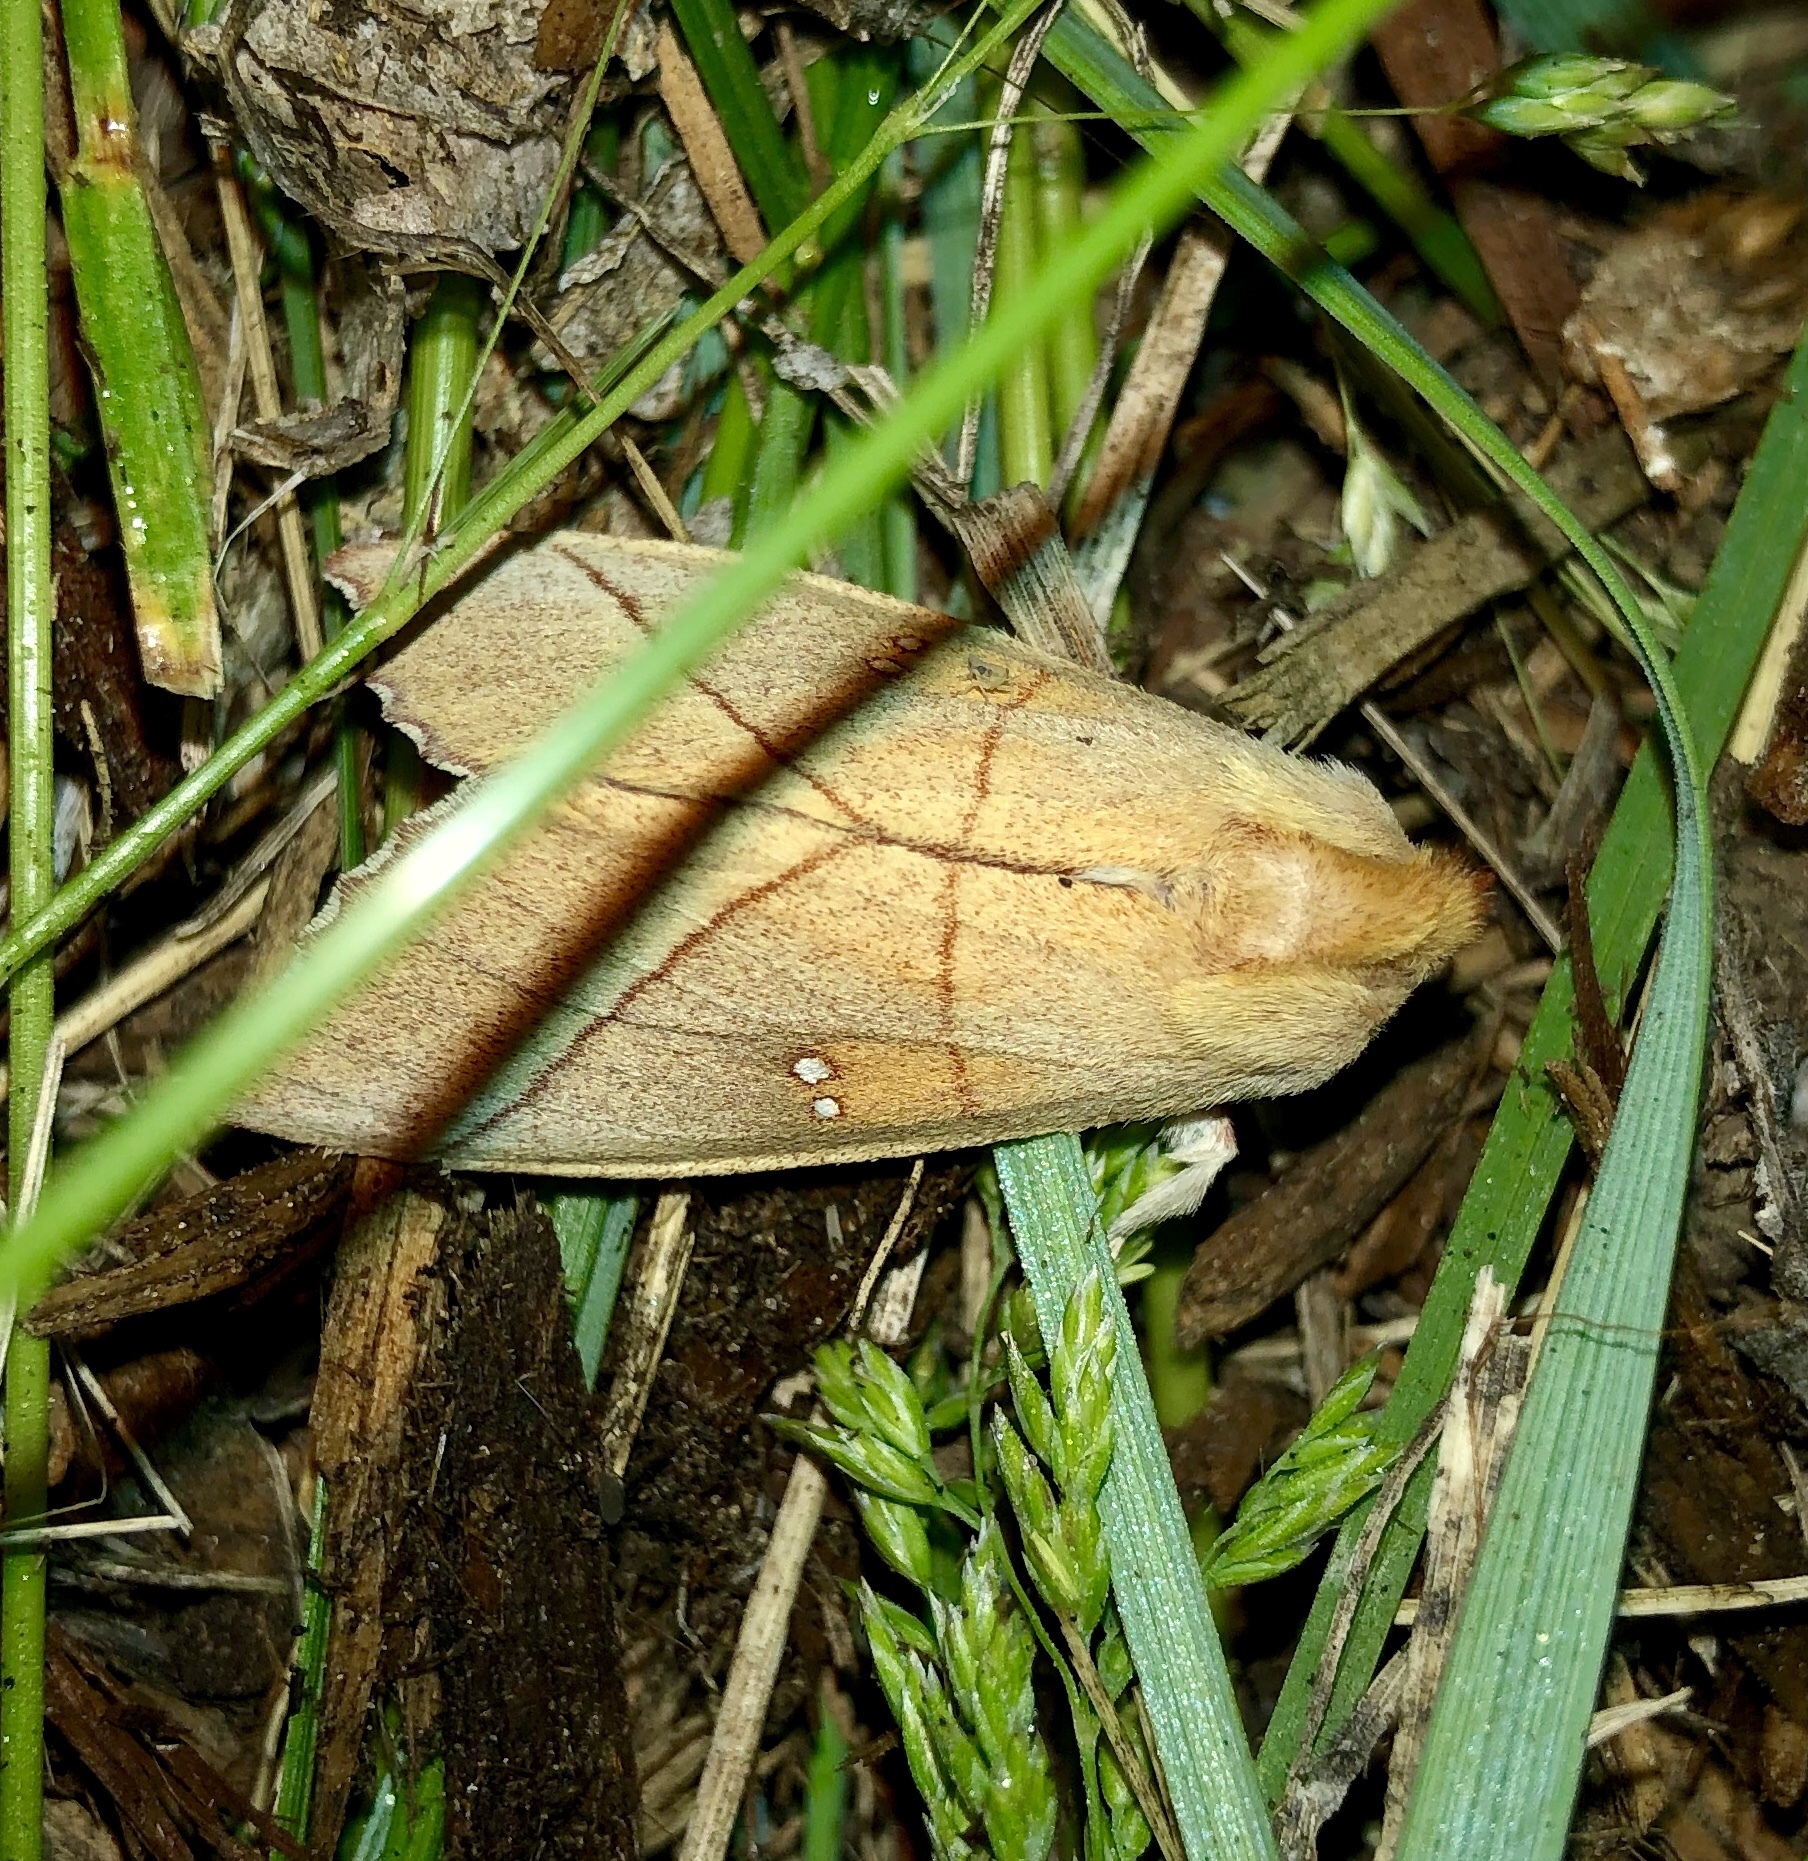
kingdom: Animalia
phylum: Arthropoda
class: Insecta
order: Lepidoptera
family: Notodontidae
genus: Nadata
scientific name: Nadata gibbosa
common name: White-dotted prominent
